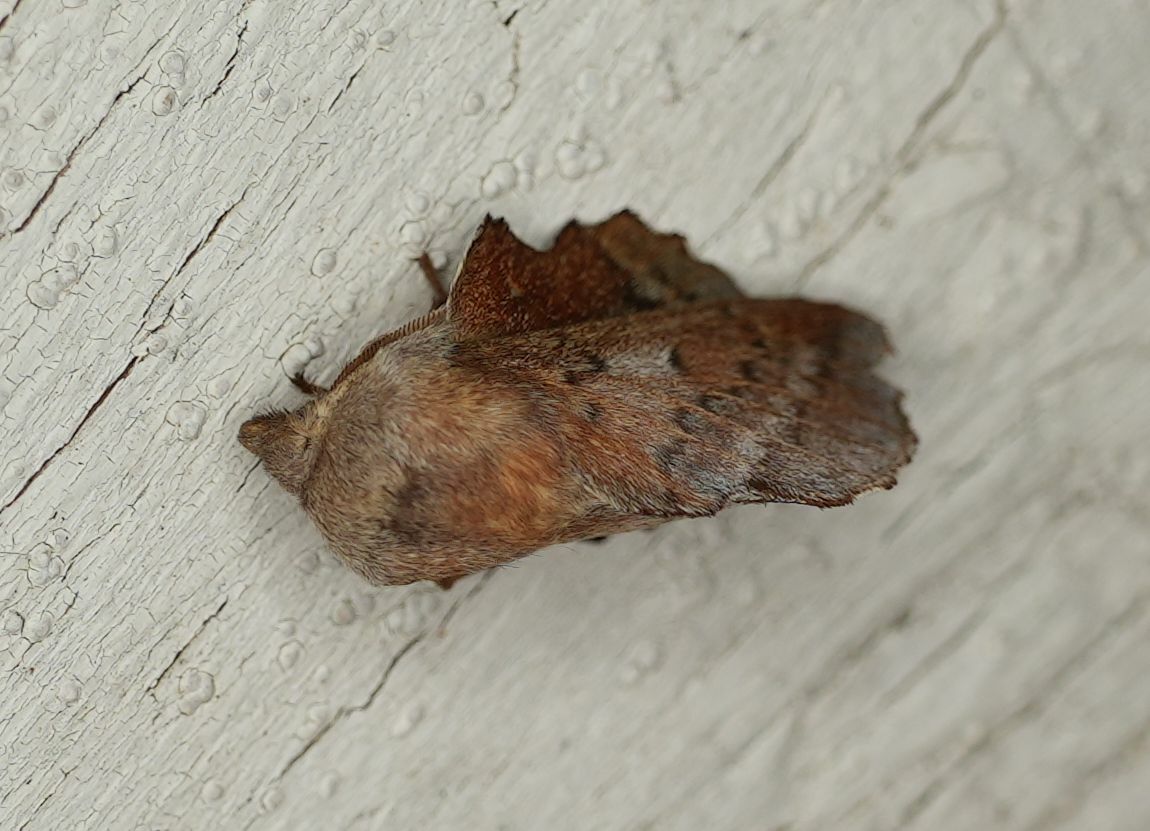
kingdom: Animalia
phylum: Arthropoda
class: Insecta
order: Lepidoptera
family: Lasiocampidae
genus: Phyllodesma
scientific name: Phyllodesma americana
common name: American lappet moth
